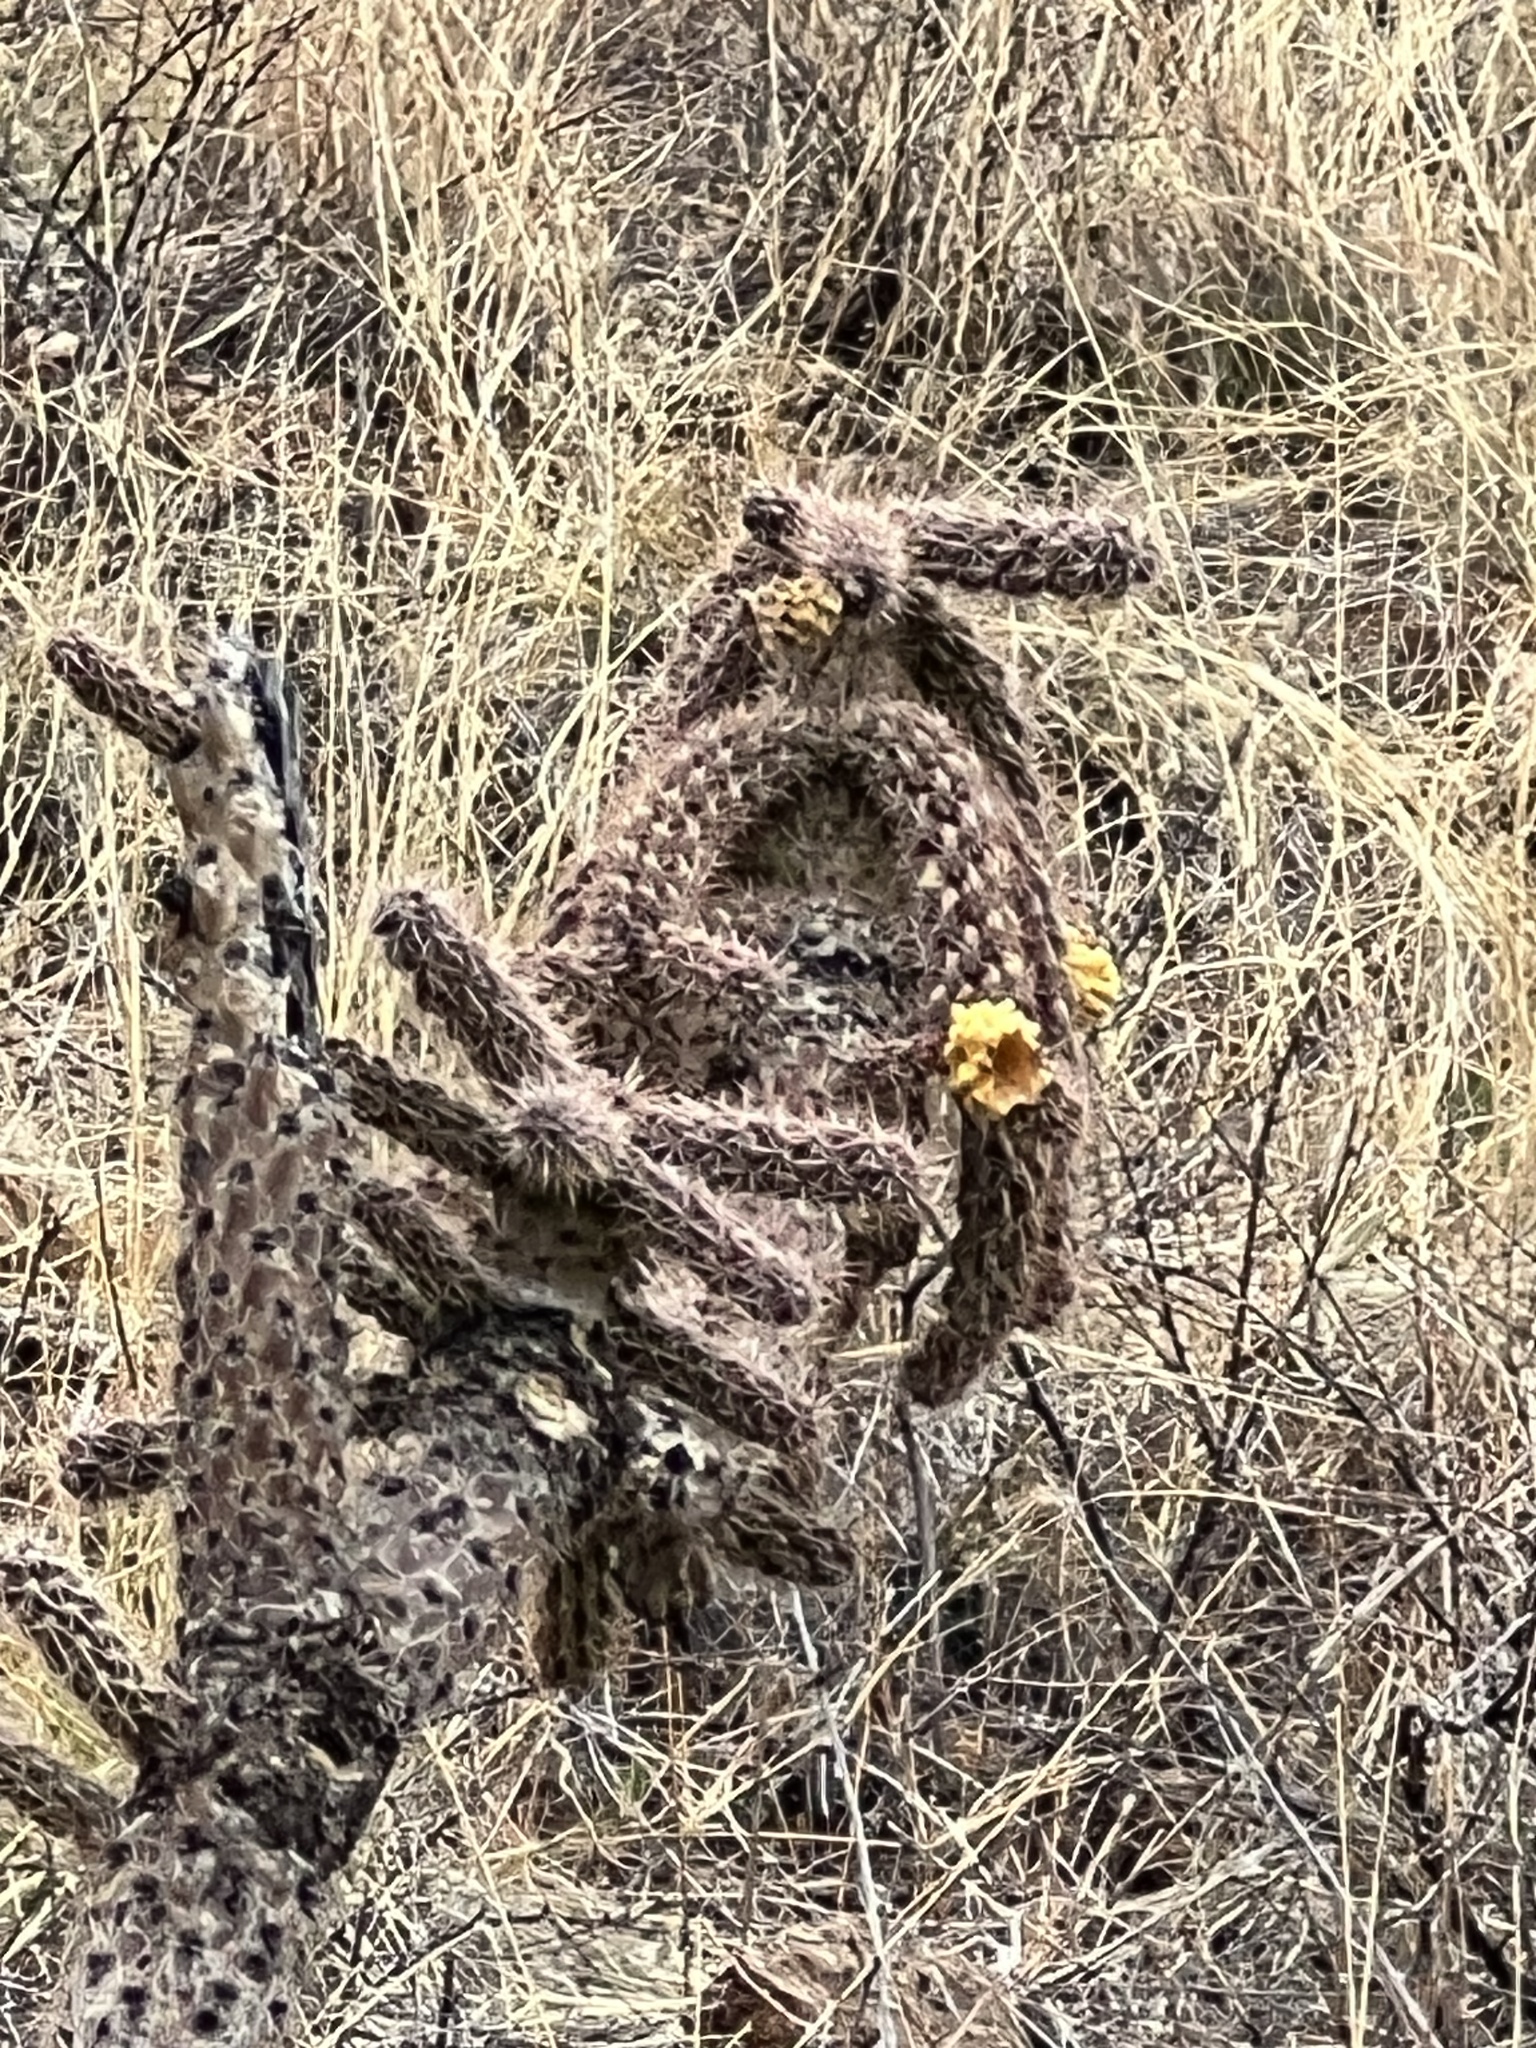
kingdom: Plantae
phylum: Tracheophyta
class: Magnoliopsida
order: Caryophyllales
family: Cactaceae
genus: Cylindropuntia
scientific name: Cylindropuntia imbricata
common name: Candelabrum cactus
